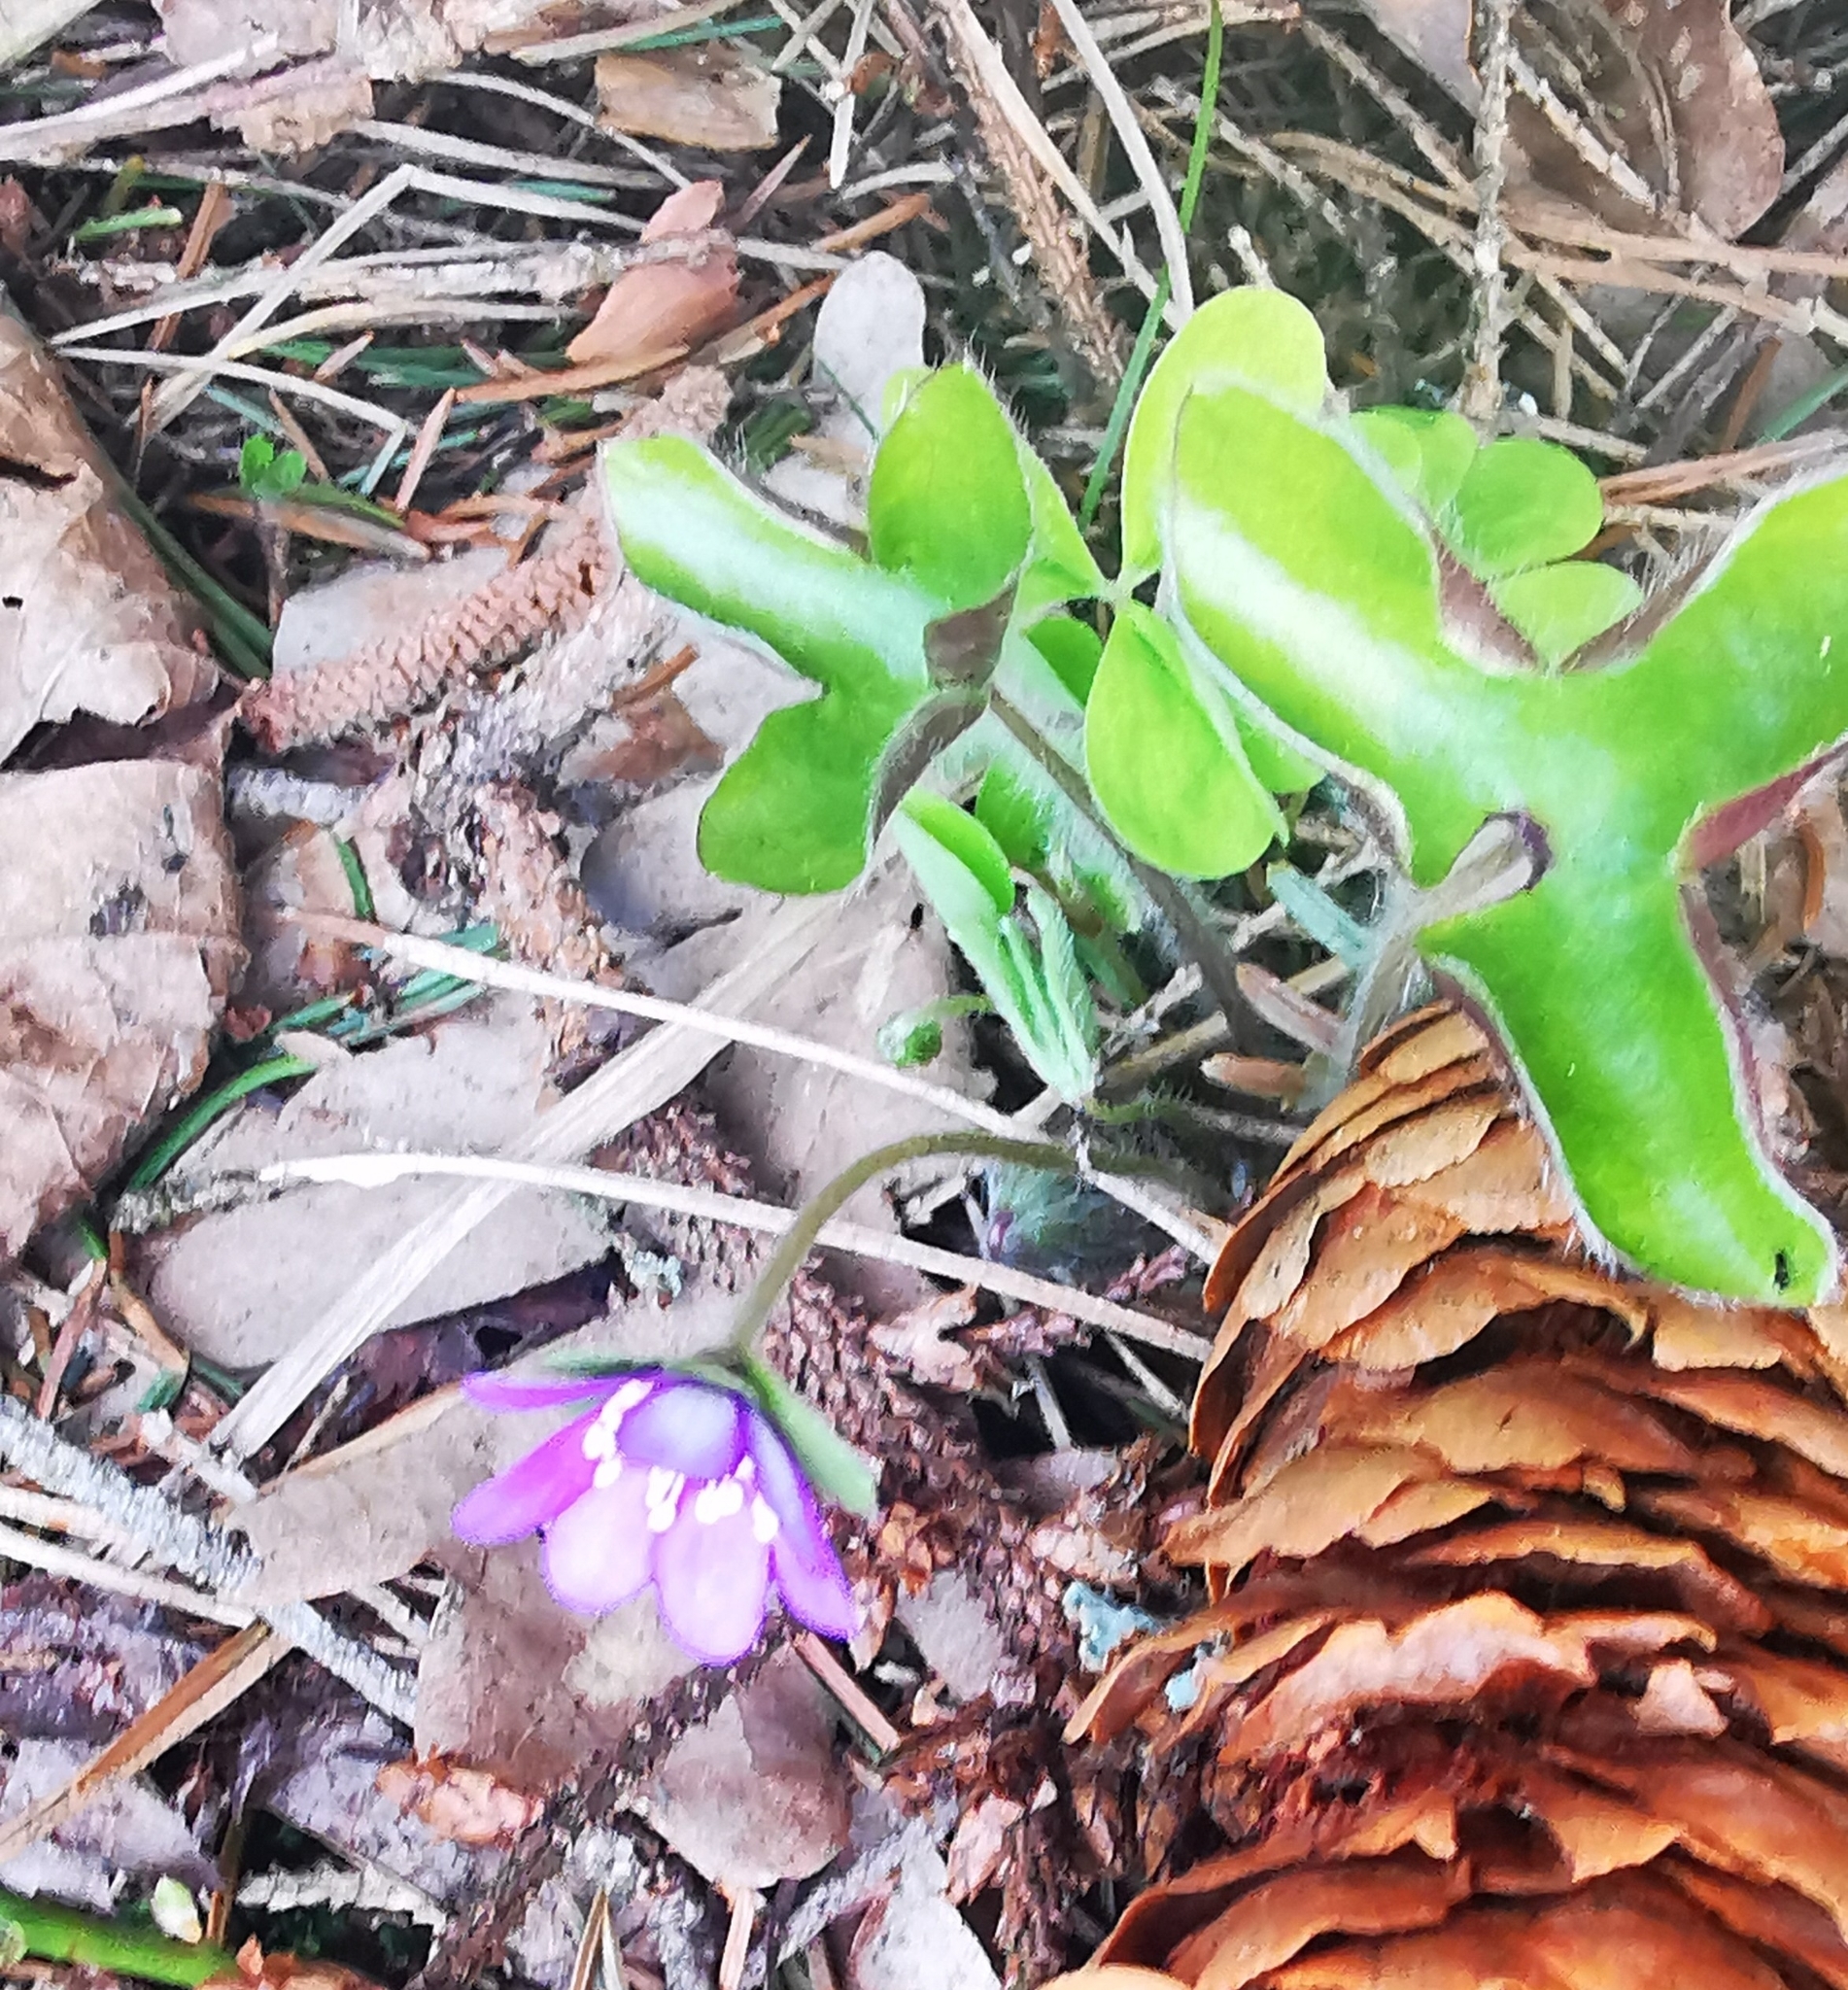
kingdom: Plantae
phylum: Tracheophyta
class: Magnoliopsida
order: Ranunculales
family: Ranunculaceae
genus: Hepatica
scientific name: Hepatica nobilis
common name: Liverleaf
